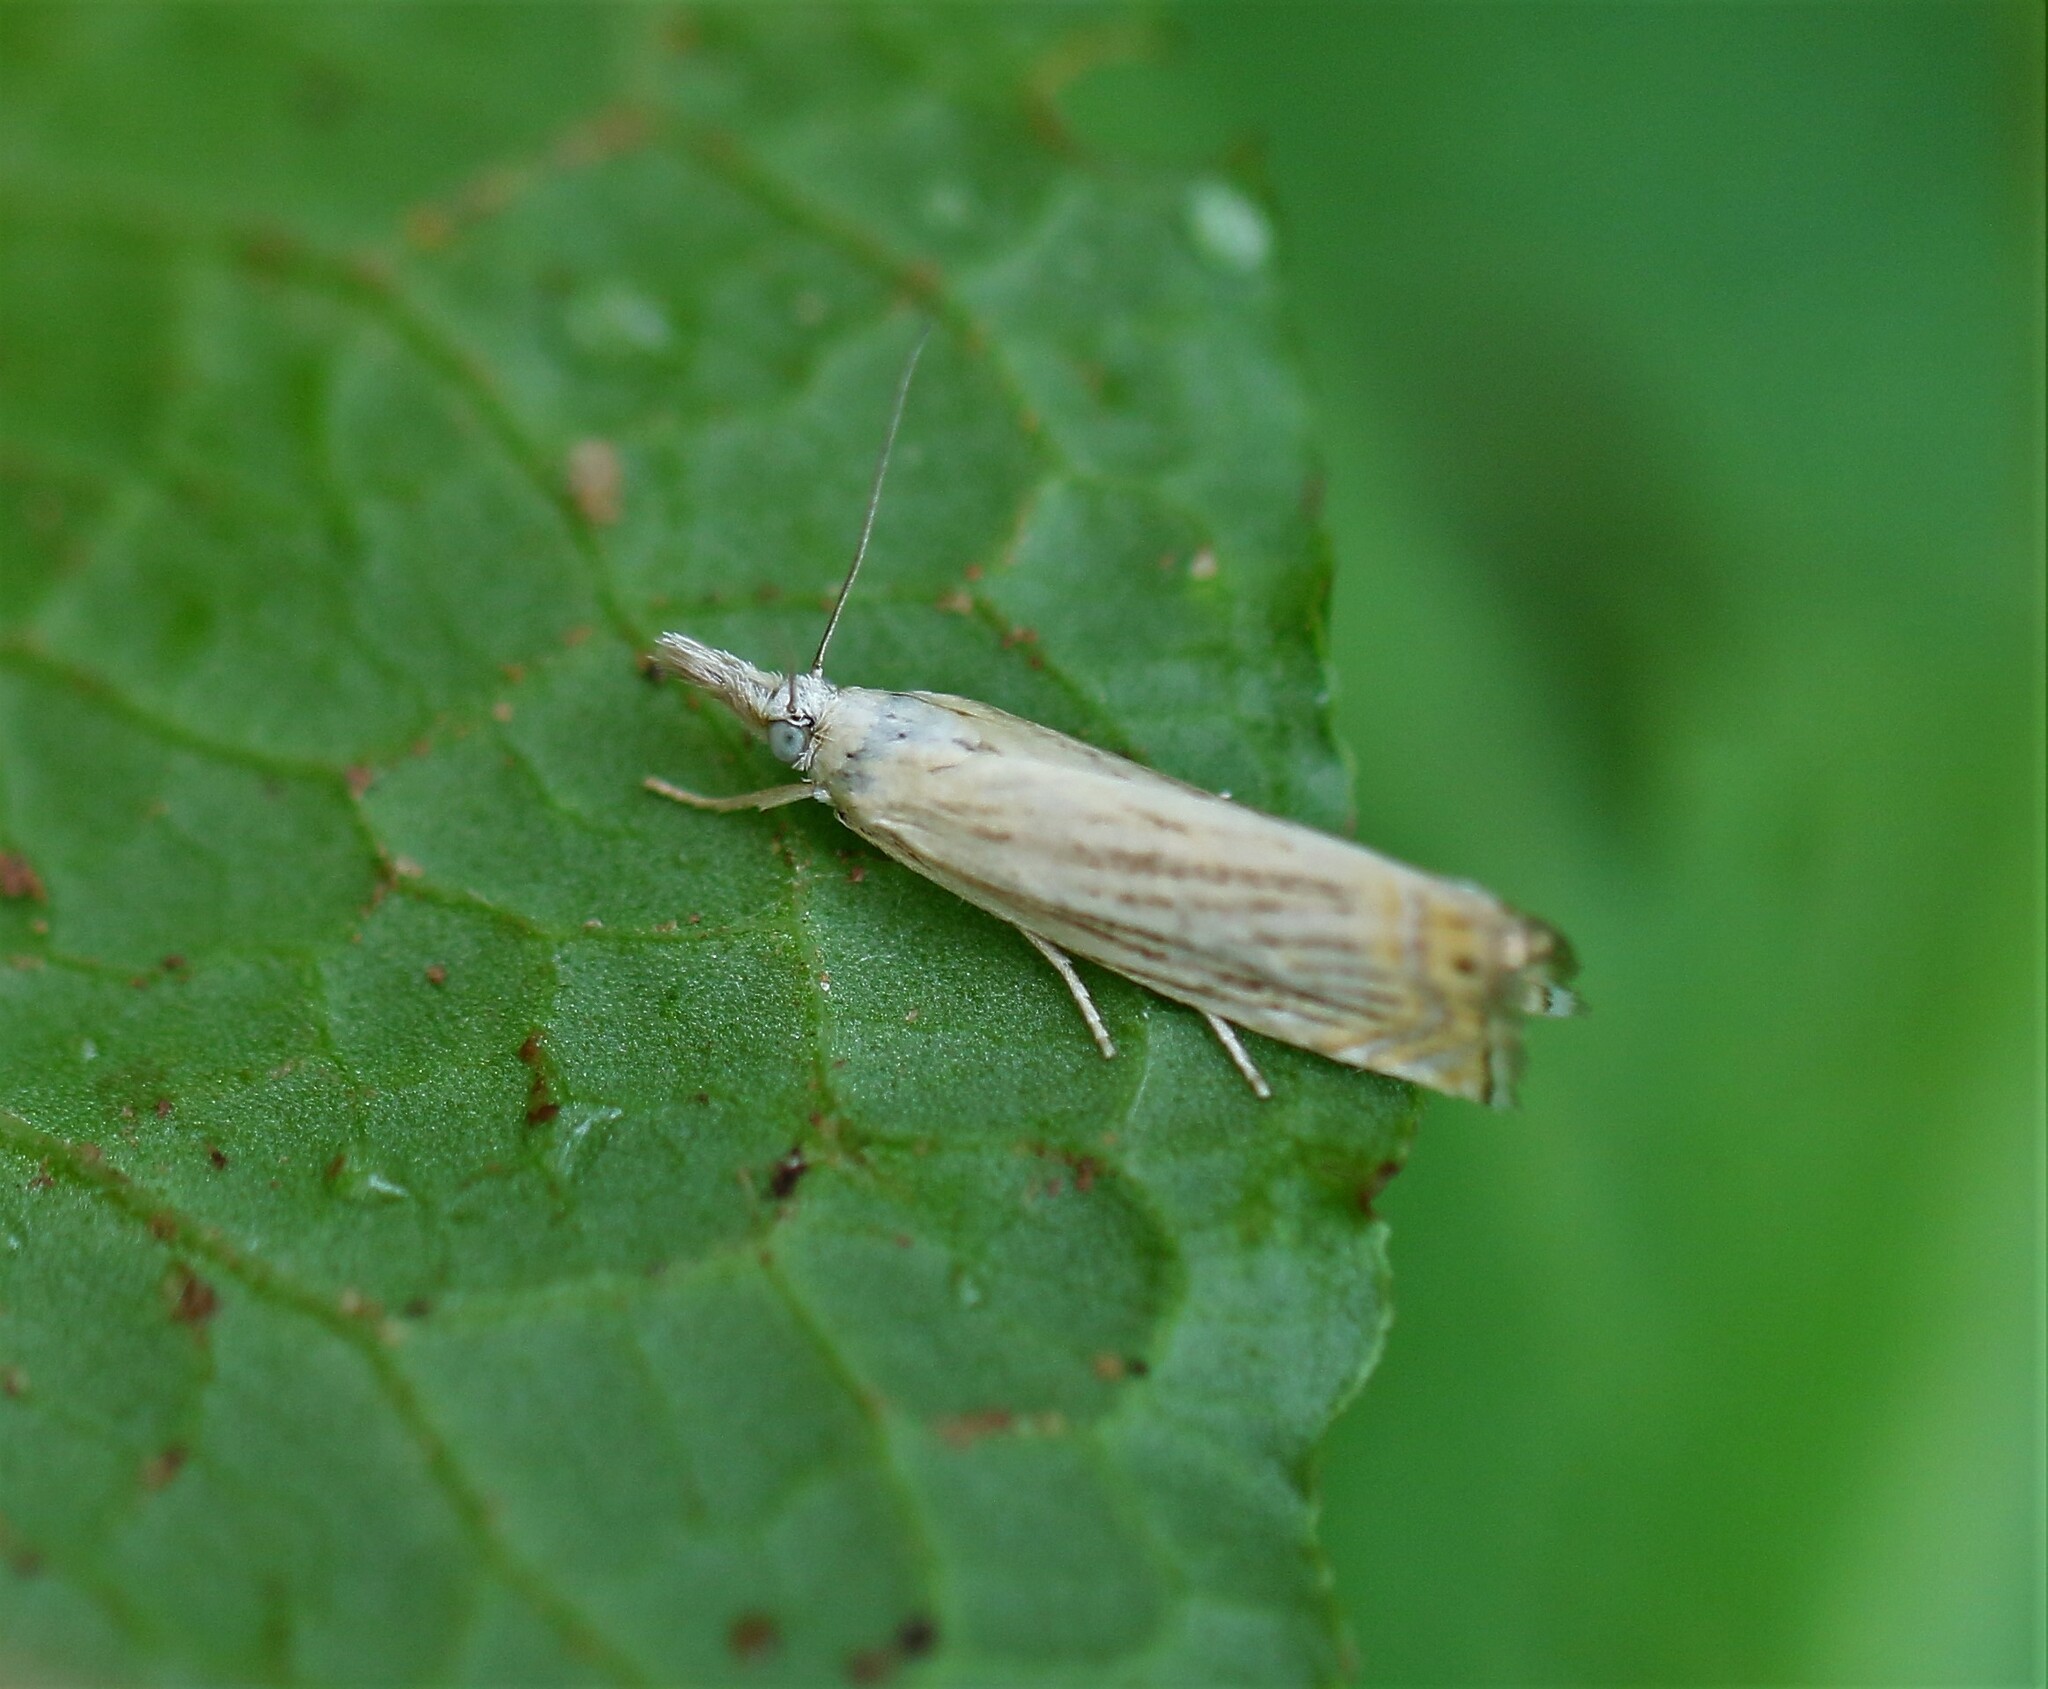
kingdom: Animalia
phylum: Arthropoda
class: Insecta
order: Lepidoptera
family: Crambidae
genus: Chrysoteuchia
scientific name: Chrysoteuchia topiarius
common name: Topiary grass-veneer
